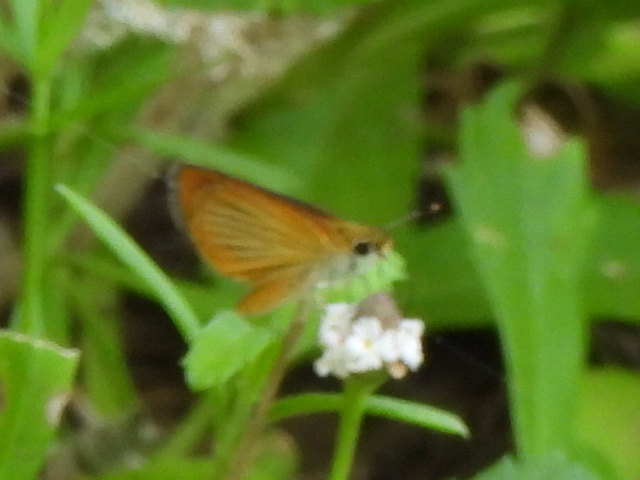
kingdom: Animalia
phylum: Arthropoda
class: Insecta
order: Lepidoptera
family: Hesperiidae
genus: Ancyloxypha
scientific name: Ancyloxypha numitor
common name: Least skipper
